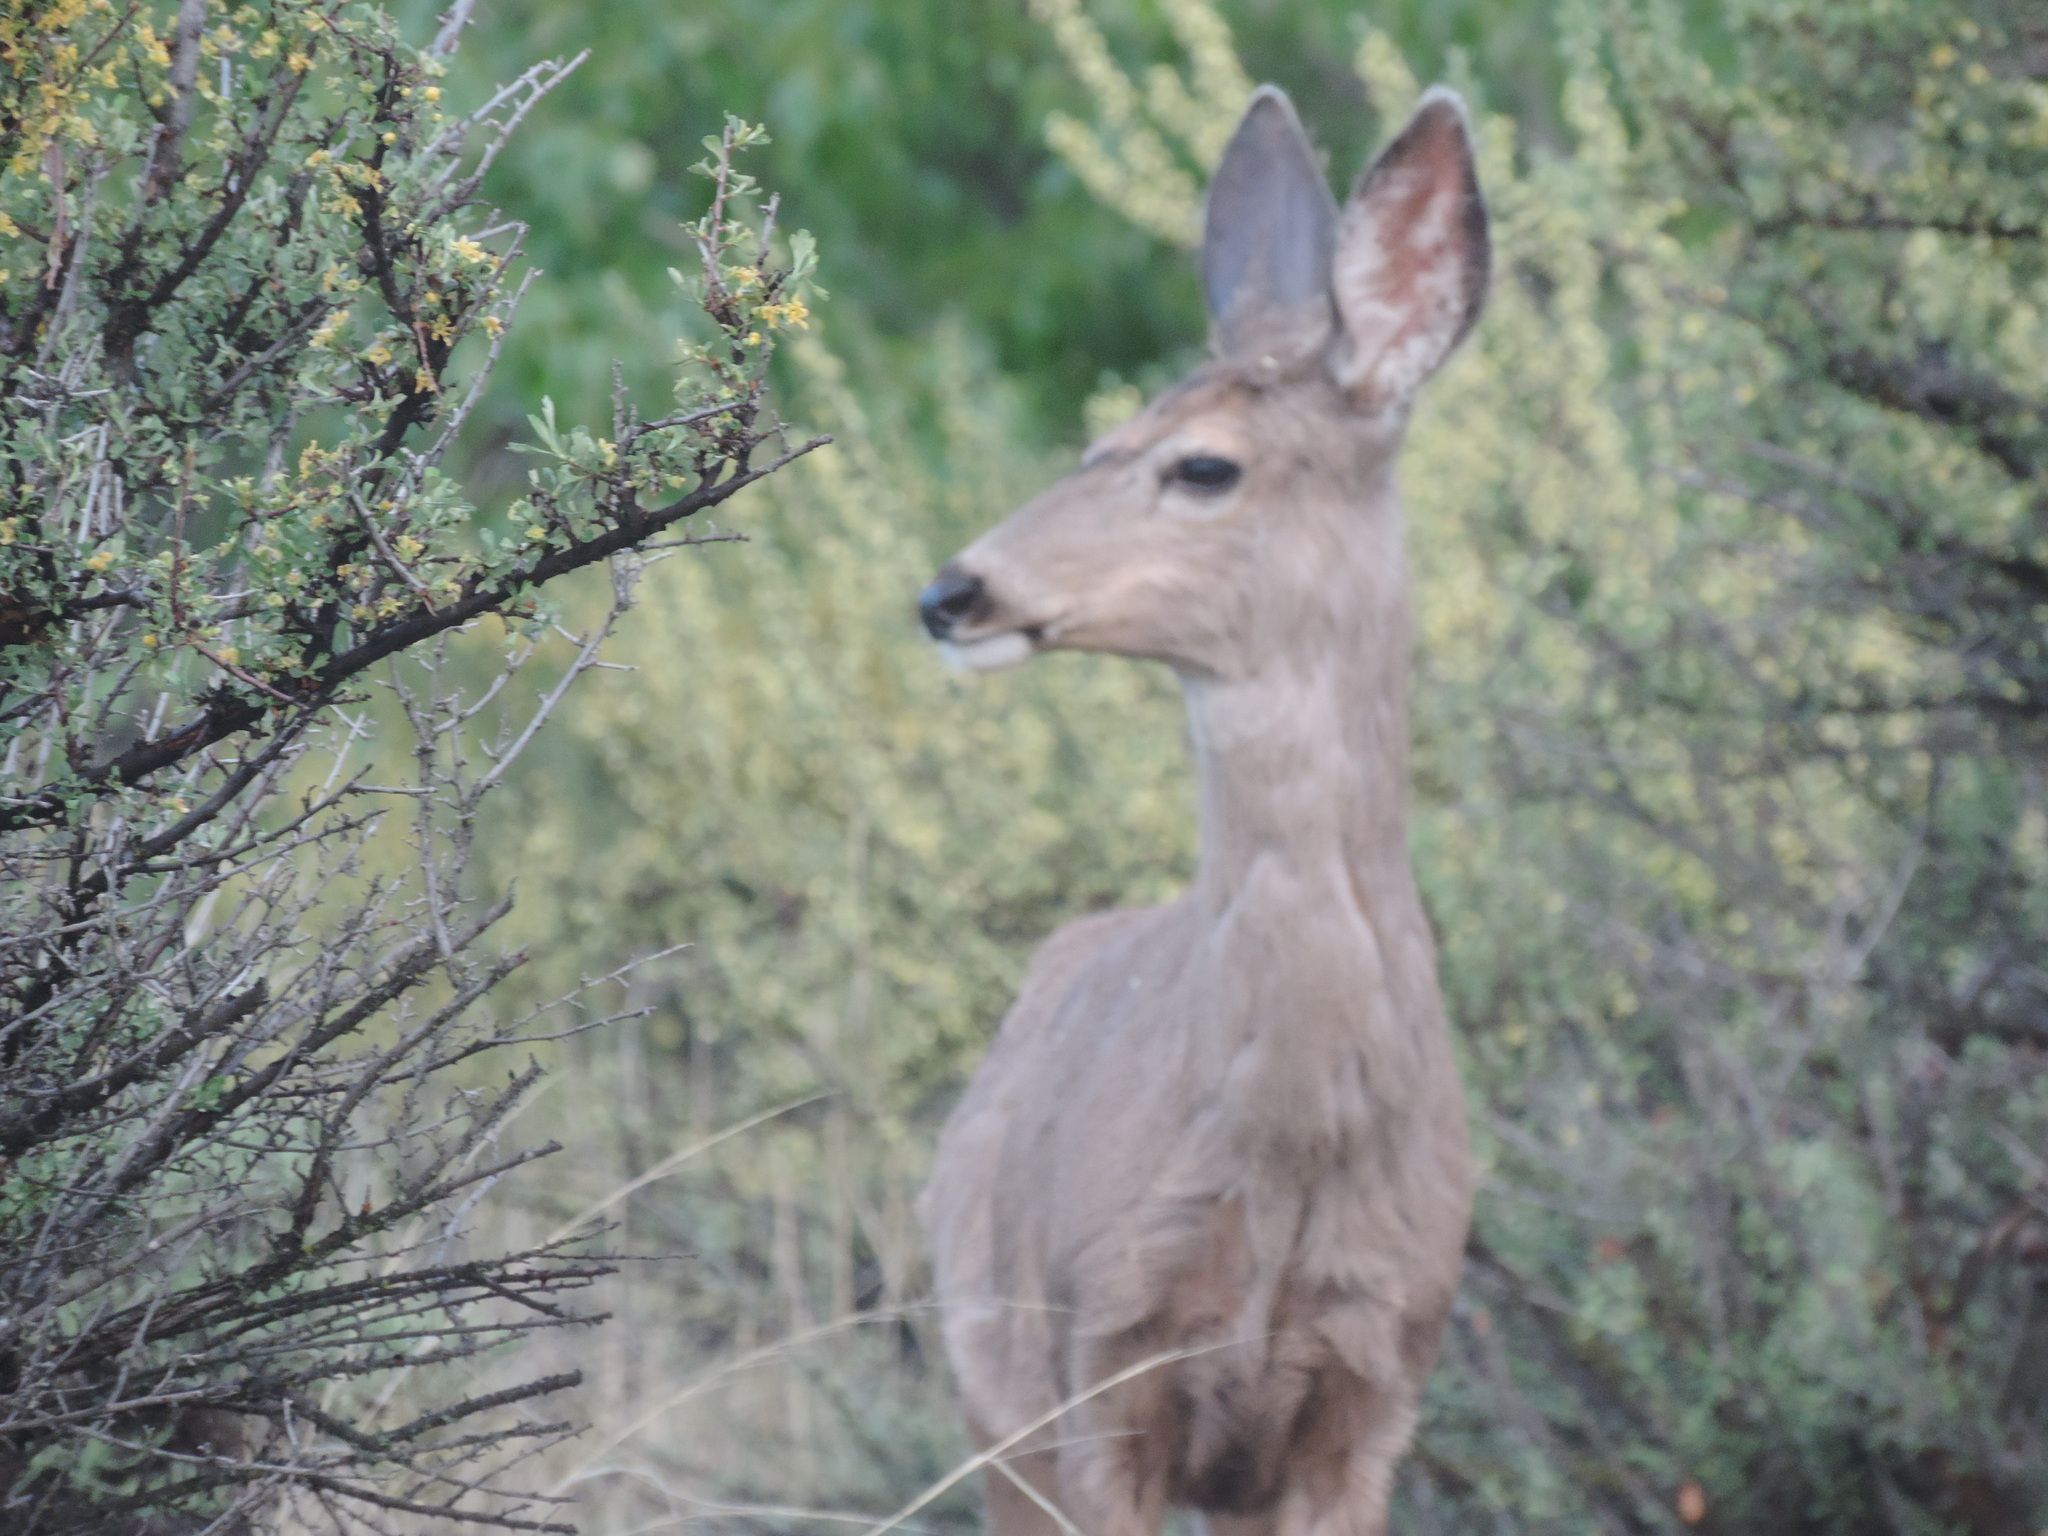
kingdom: Animalia
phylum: Chordata
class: Mammalia
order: Artiodactyla
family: Cervidae
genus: Odocoileus
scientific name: Odocoileus hemionus
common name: Mule deer
